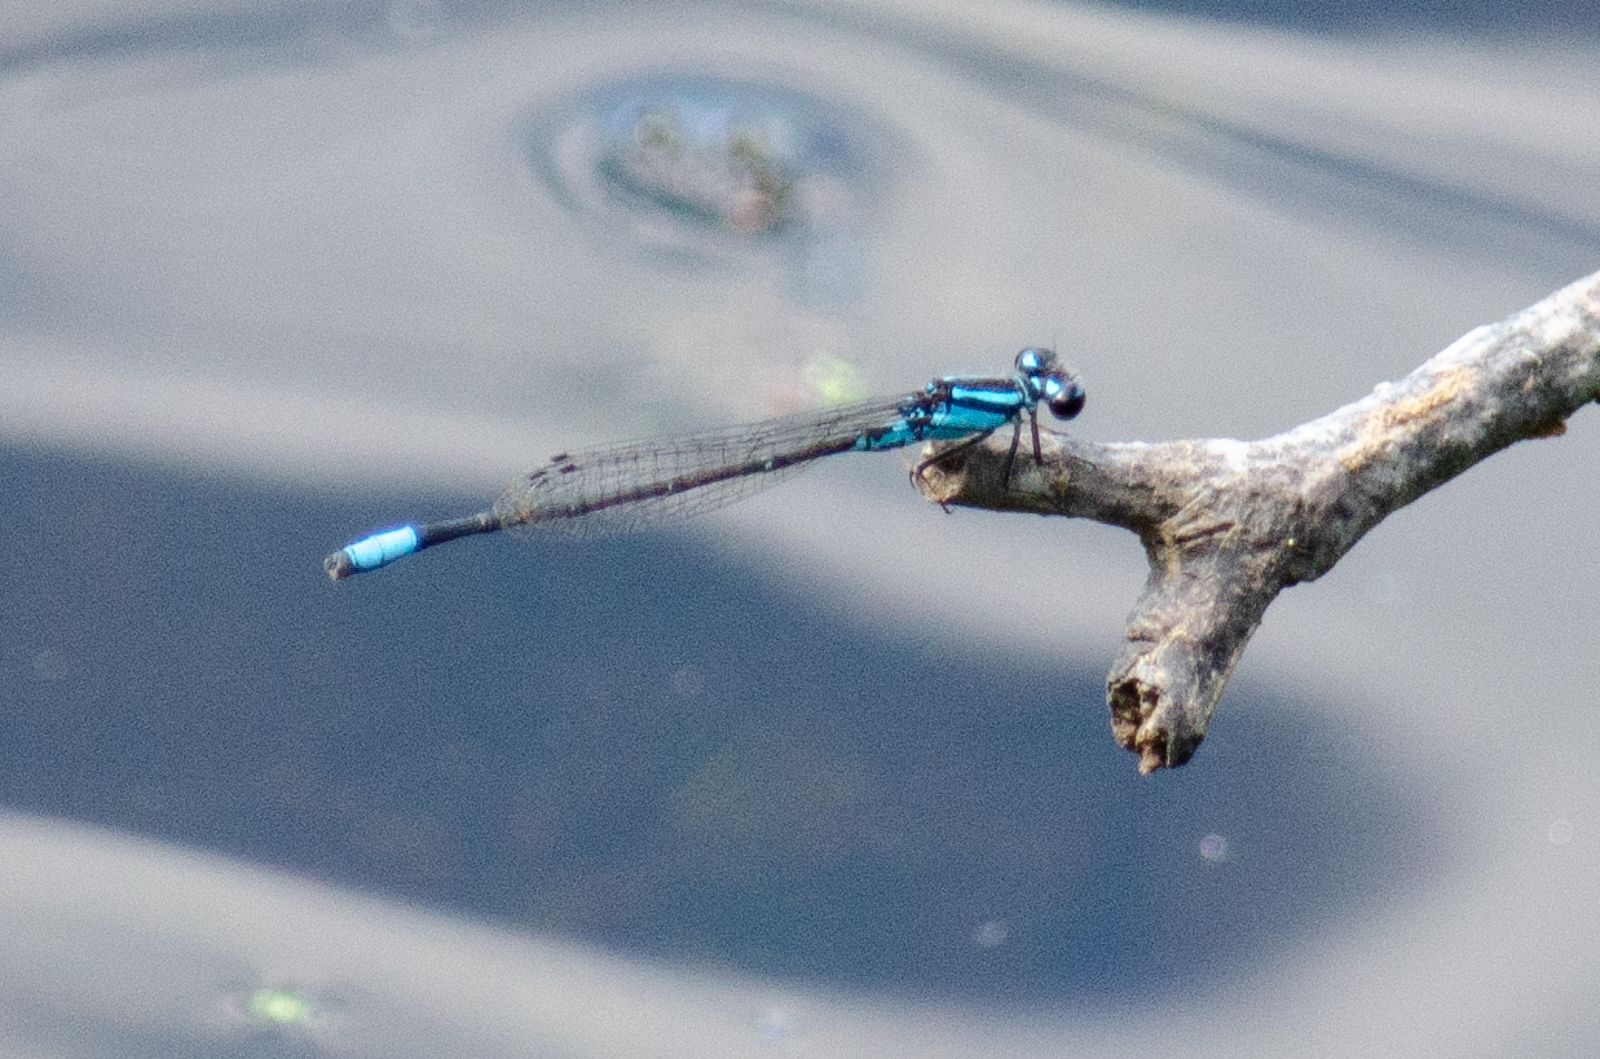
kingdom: Animalia
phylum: Arthropoda
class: Insecta
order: Odonata
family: Coenagrionidae
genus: Enallagma
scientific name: Enallagma geminatum
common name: Skimming bluet
